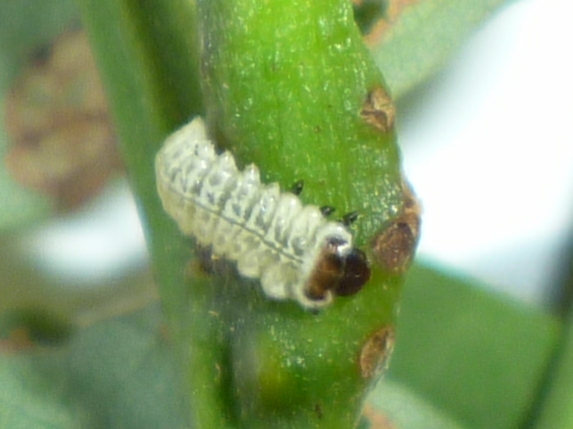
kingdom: Animalia
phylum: Arthropoda
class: Insecta
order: Coleoptera
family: Chrysomelidae
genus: Odontota
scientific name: Odontota dorsalis
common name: Locust leaf-miner beetle
